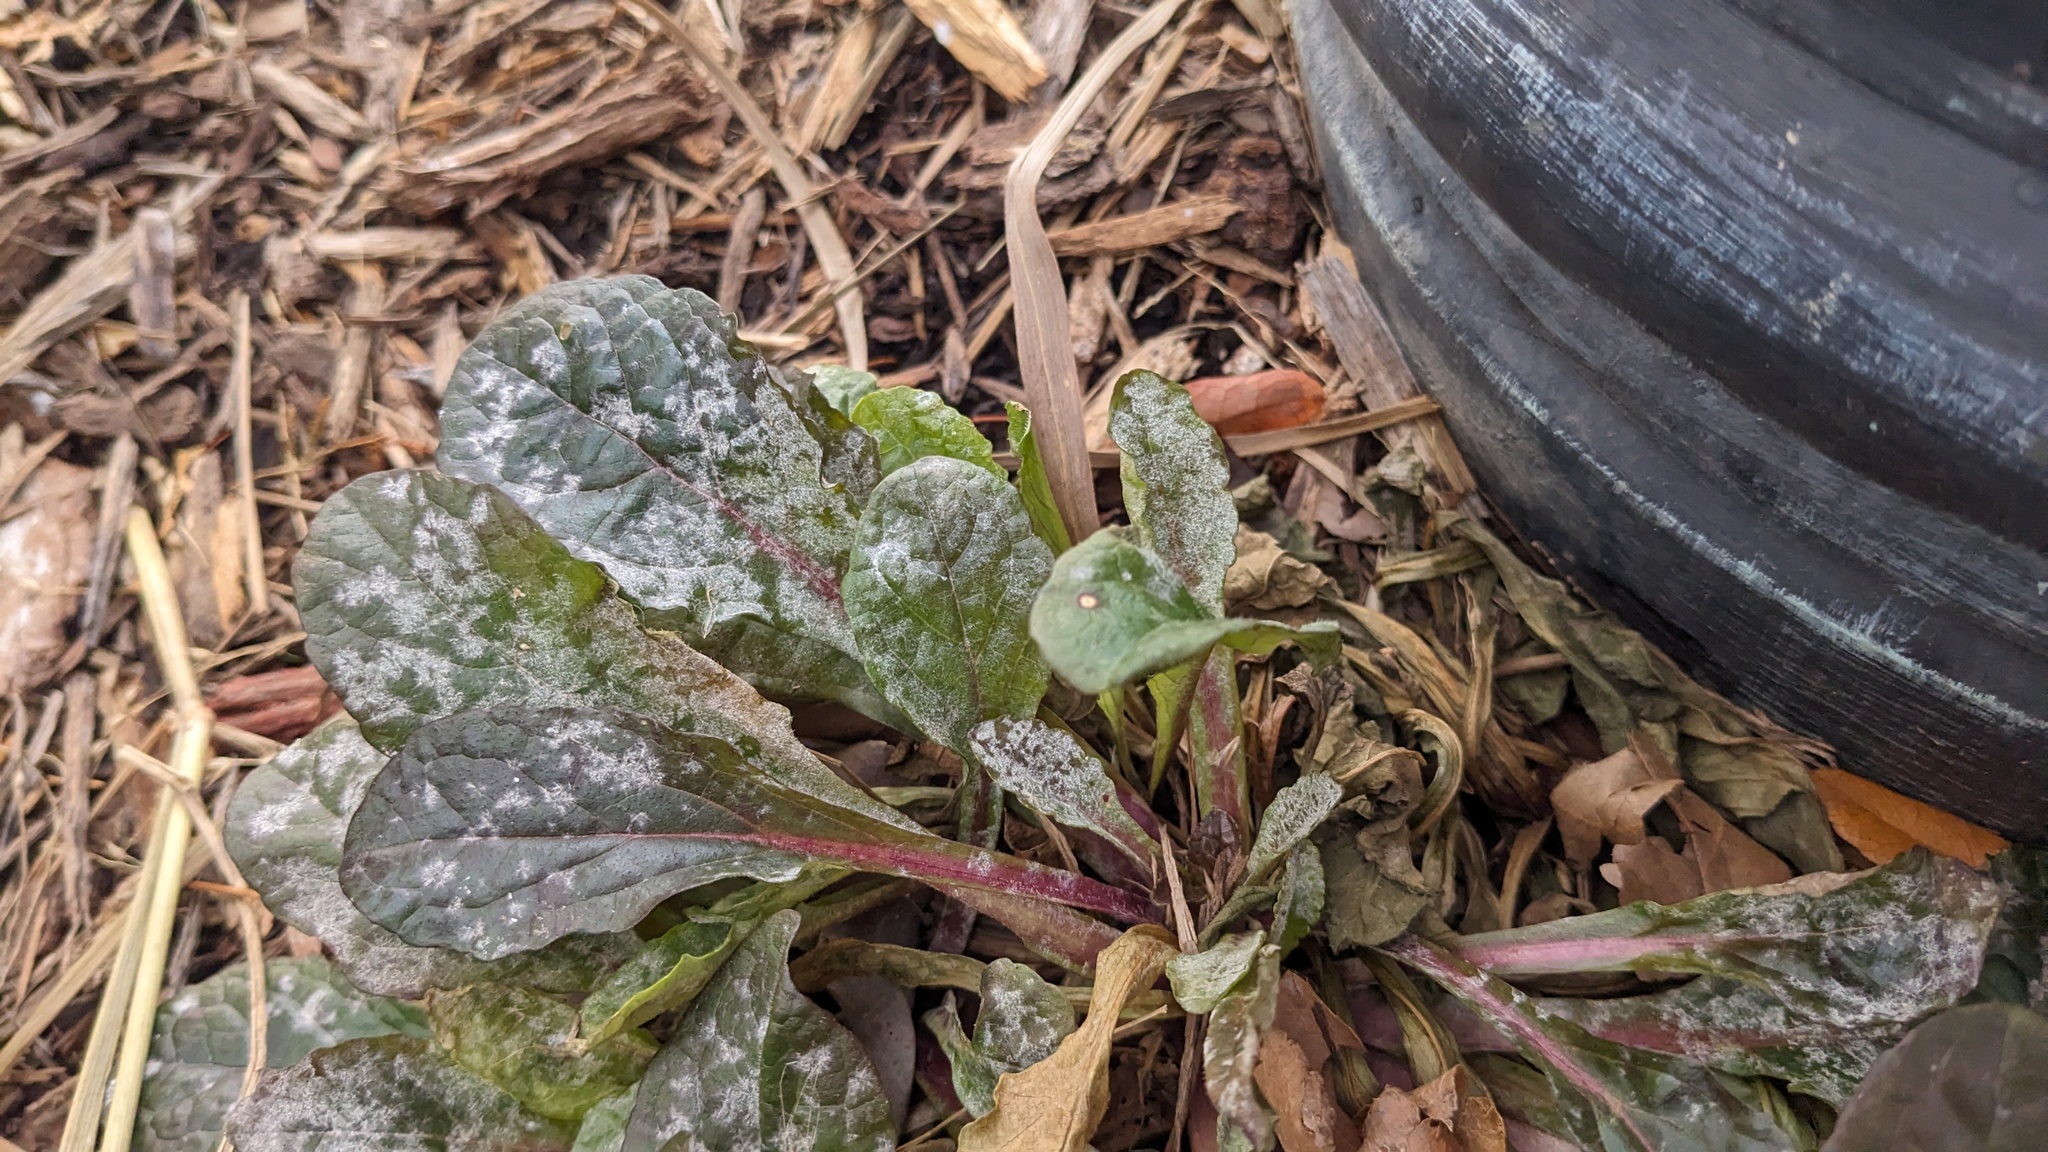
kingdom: Fungi
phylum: Ascomycota
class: Leotiomycetes
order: Helotiales
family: Erysiphaceae
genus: Neoerysiphe
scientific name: Neoerysiphe galeopsidis
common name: Mint mildew
